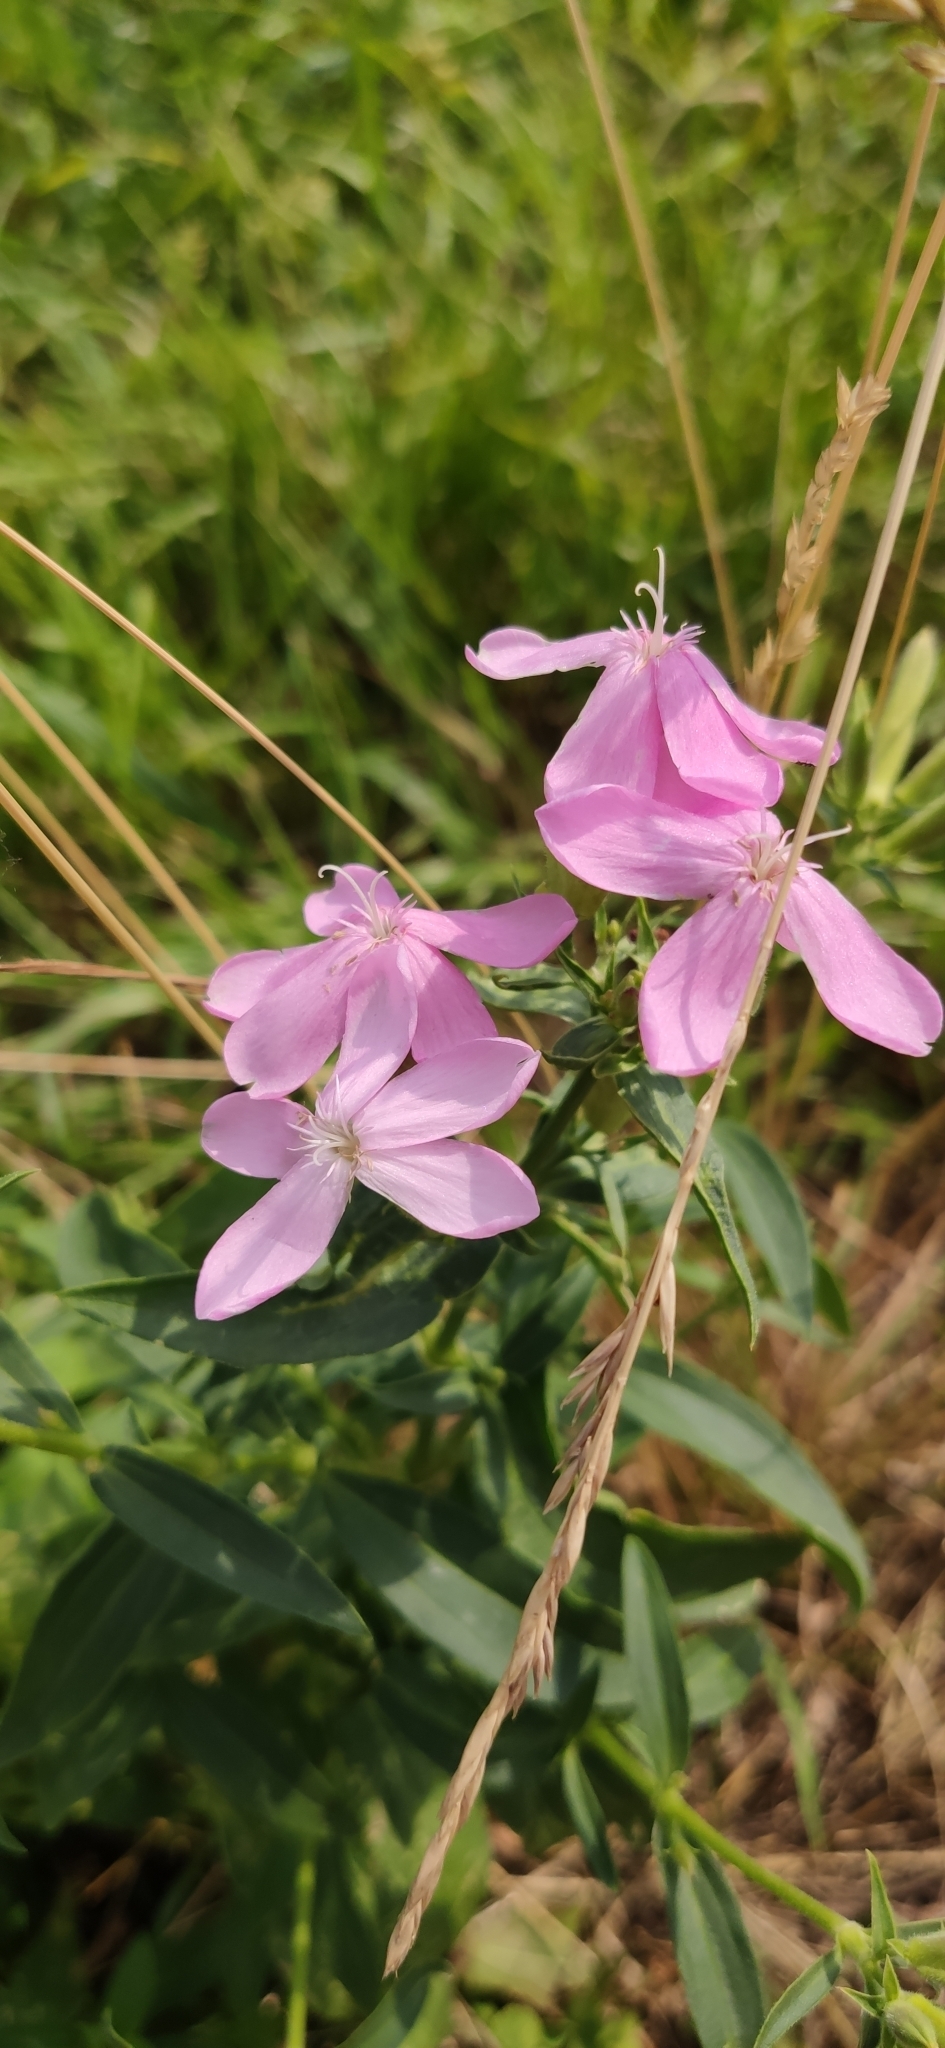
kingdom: Plantae
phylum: Tracheophyta
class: Magnoliopsida
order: Caryophyllales
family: Caryophyllaceae
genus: Saponaria
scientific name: Saponaria officinalis
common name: Soapwort
